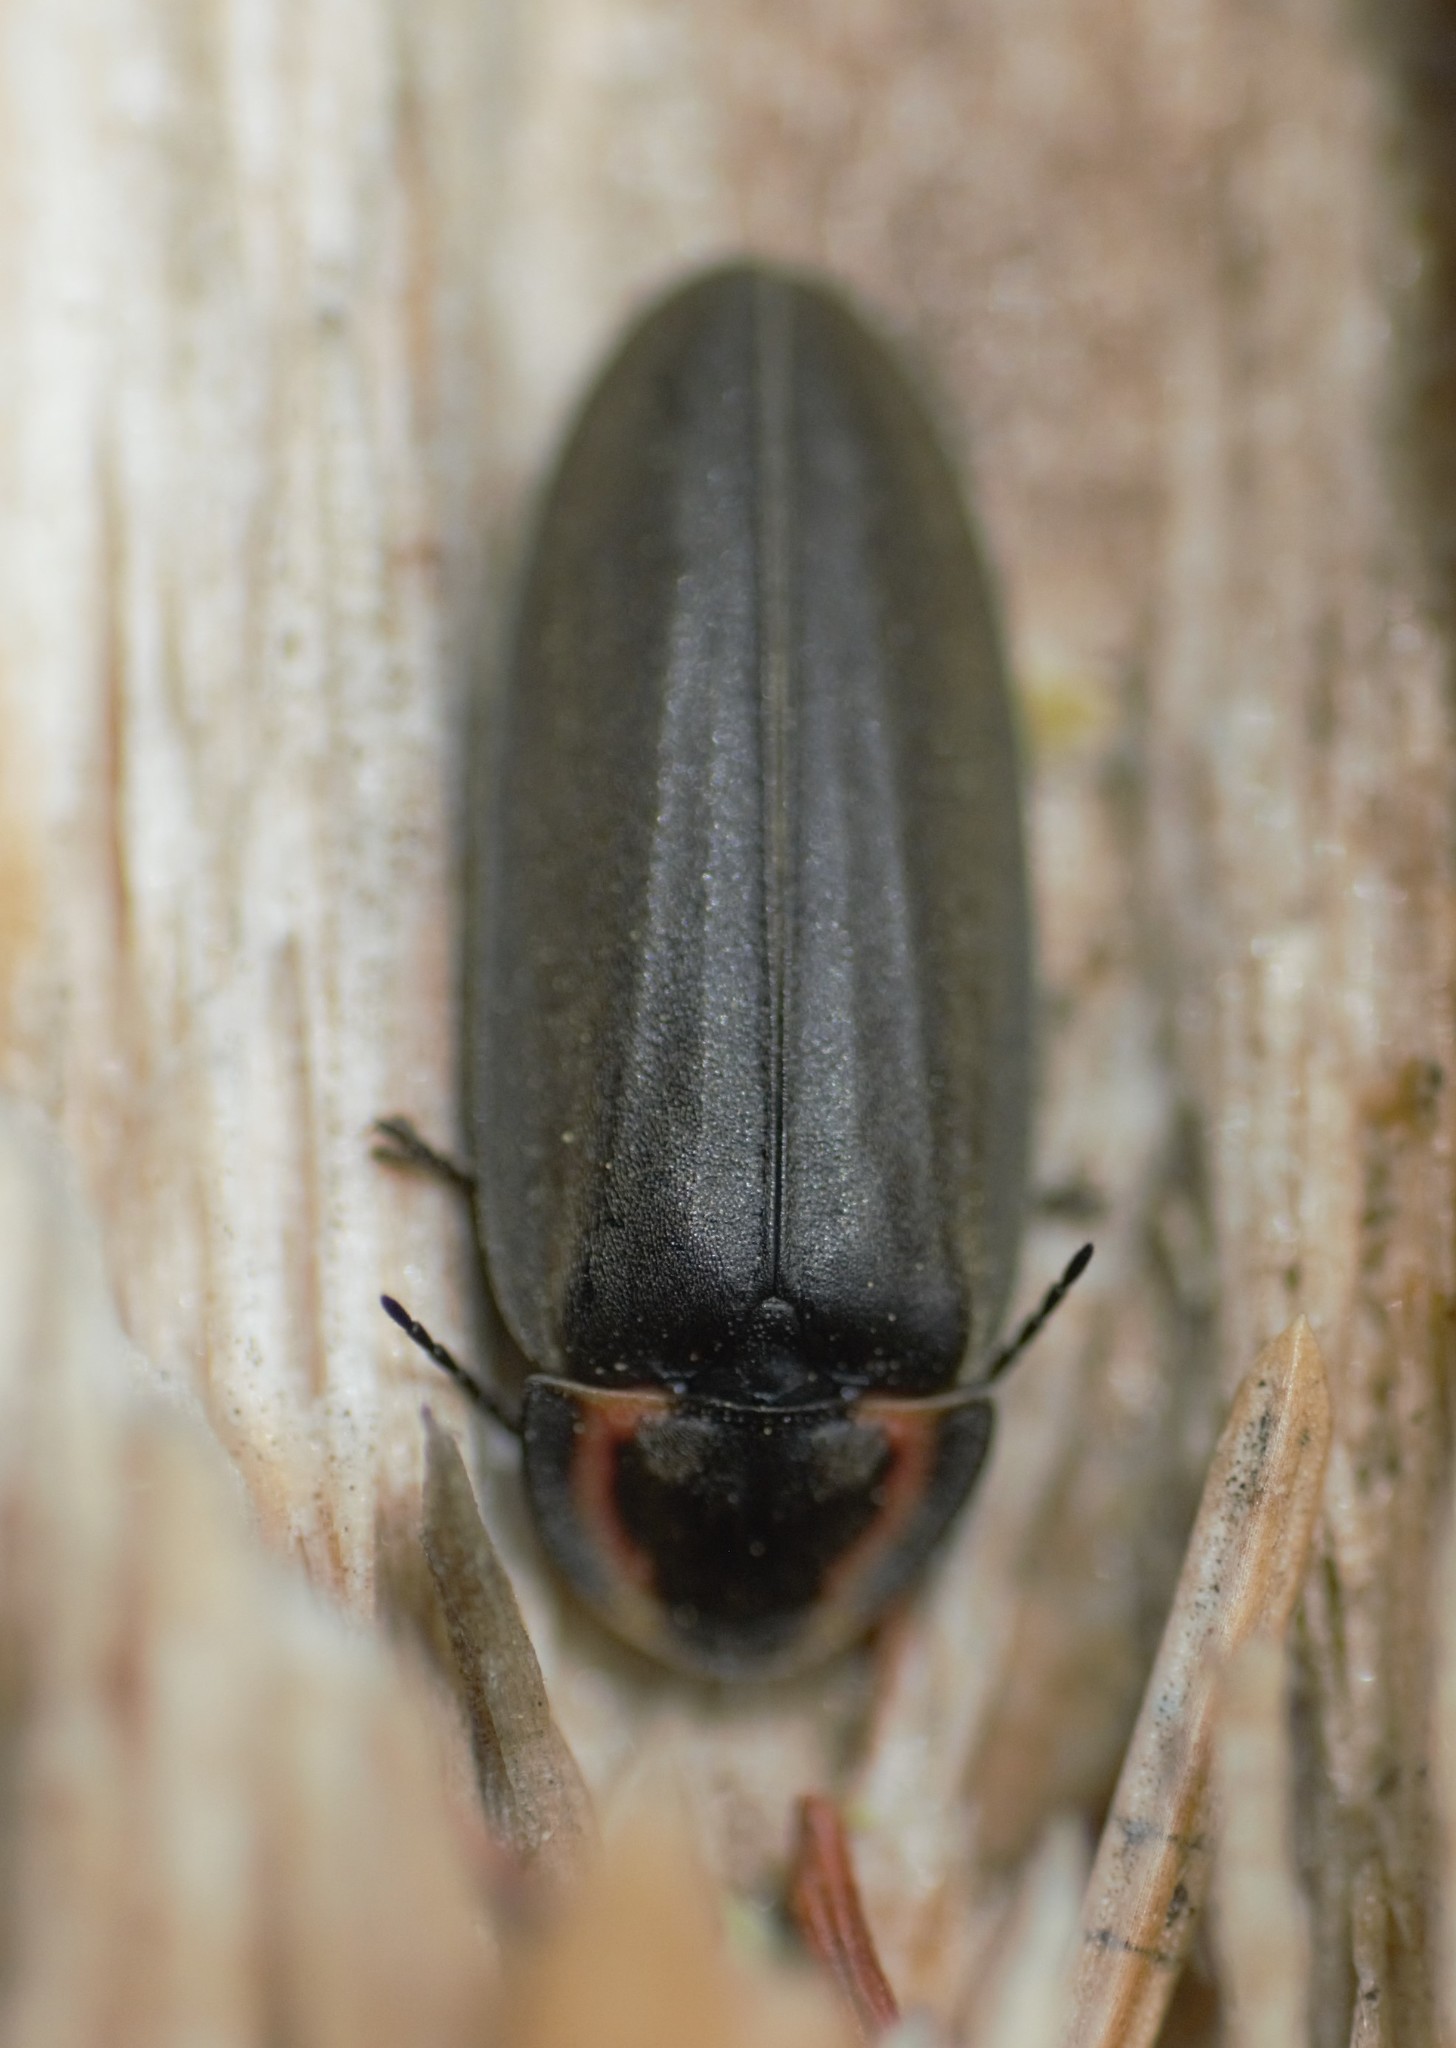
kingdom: Animalia
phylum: Arthropoda
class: Insecta
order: Coleoptera
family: Lampyridae
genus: Photinus
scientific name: Photinus corrusca
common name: Winter firefly
